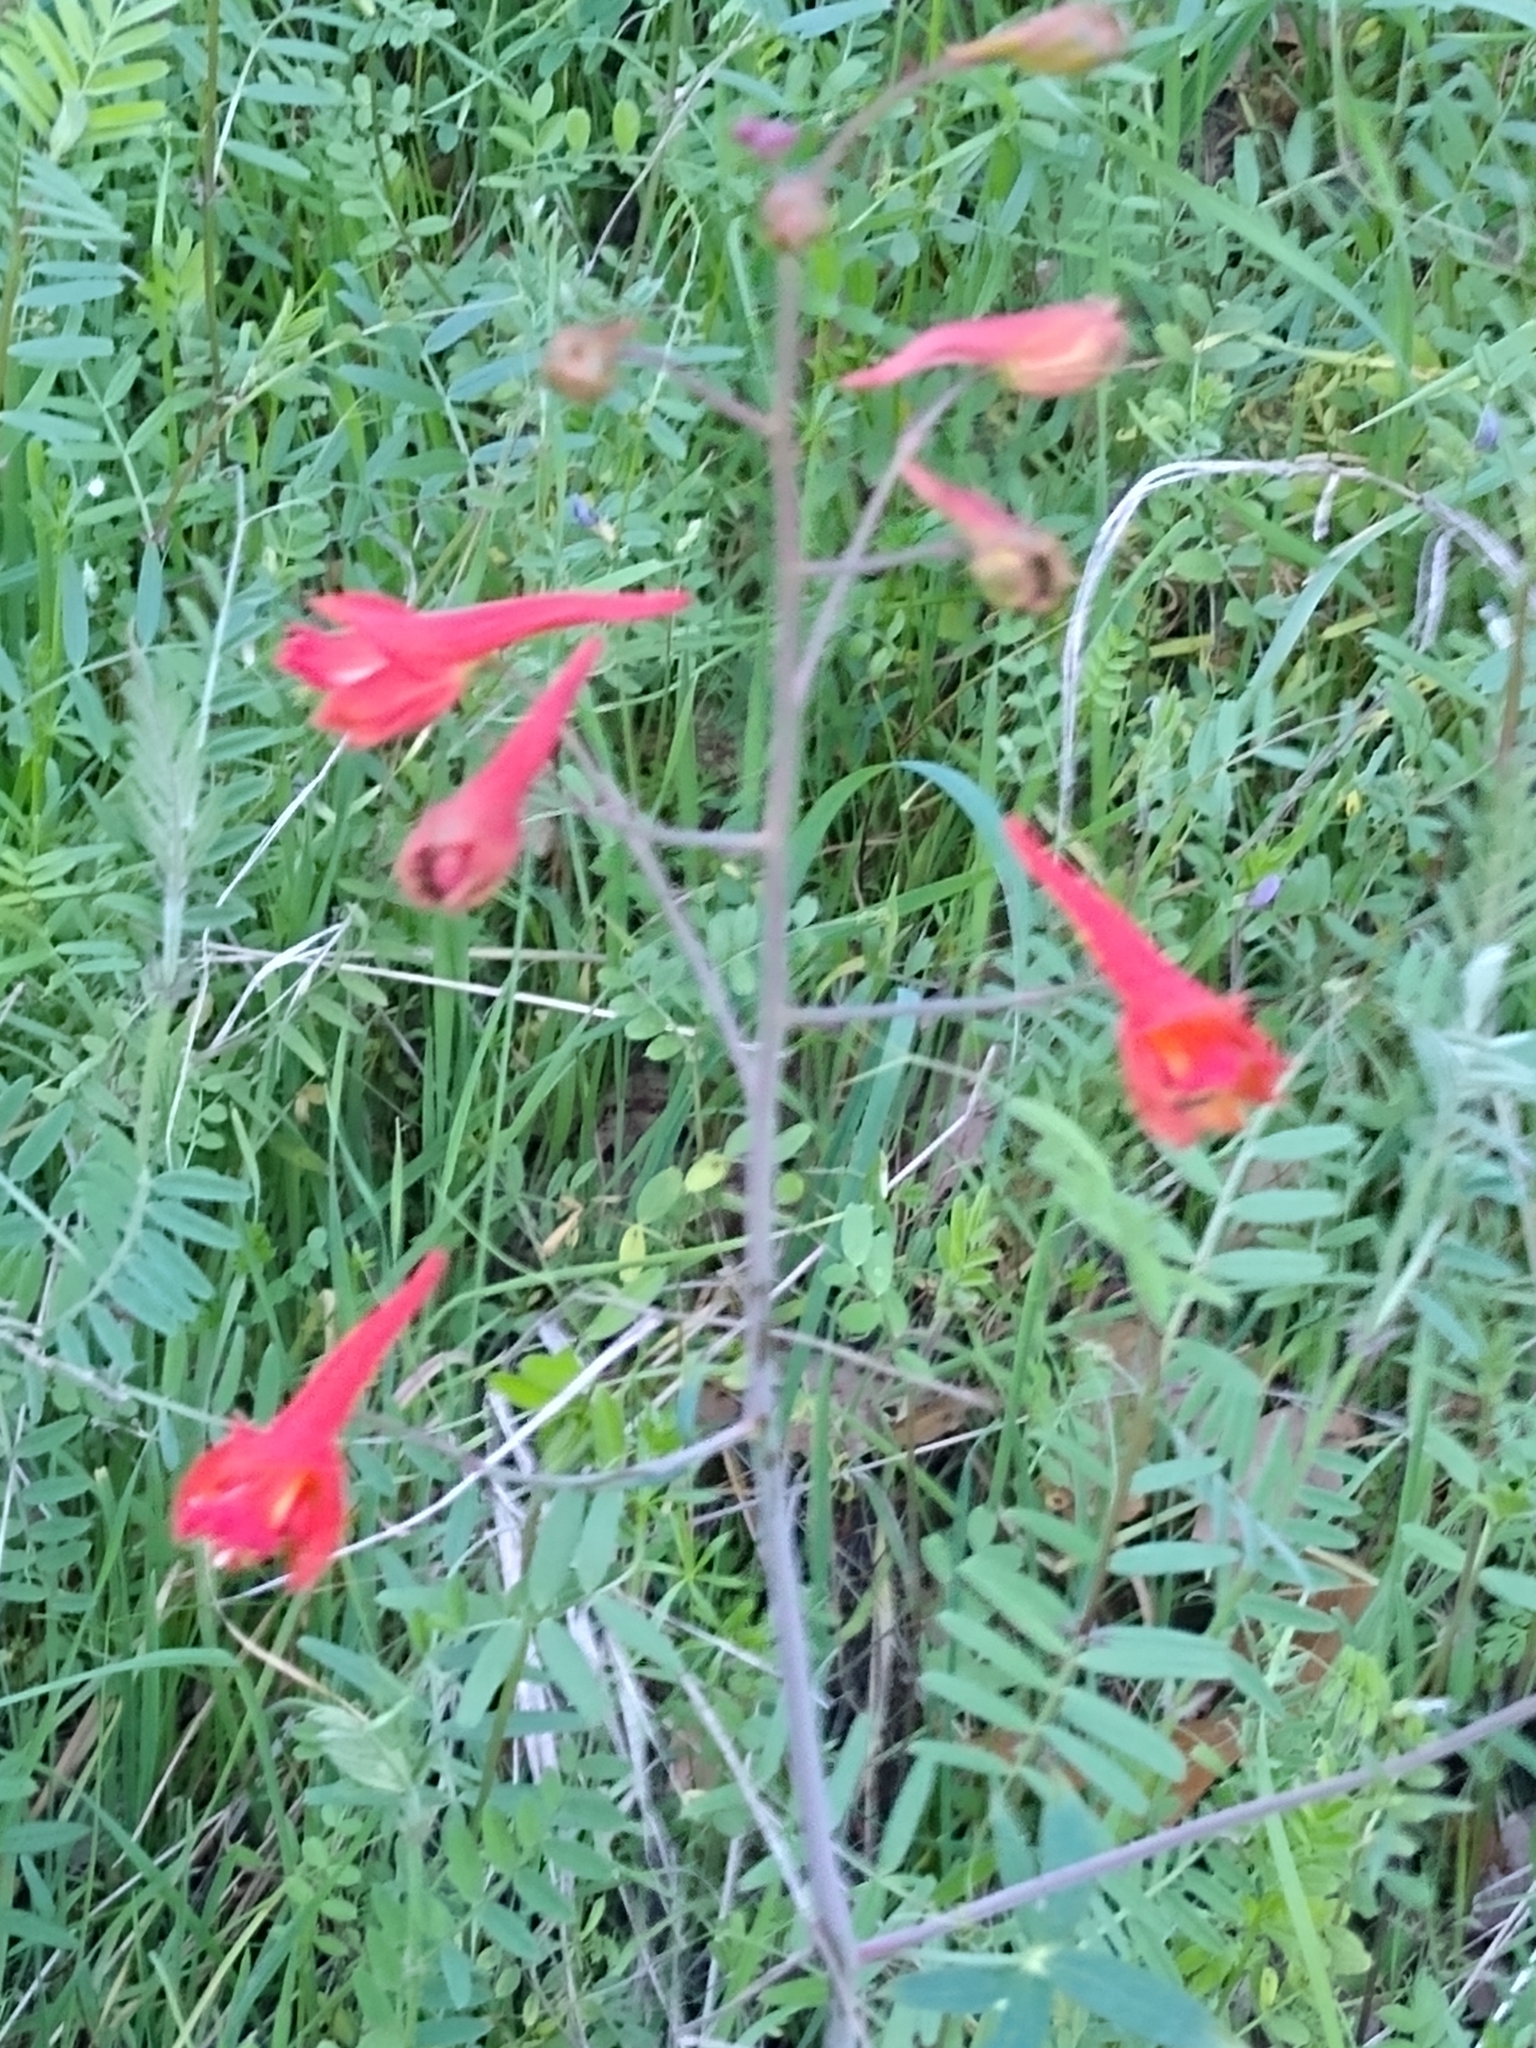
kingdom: Plantae
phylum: Tracheophyta
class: Magnoliopsida
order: Ranunculales
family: Ranunculaceae
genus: Delphinium
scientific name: Delphinium nudicaule
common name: Red larkspur
